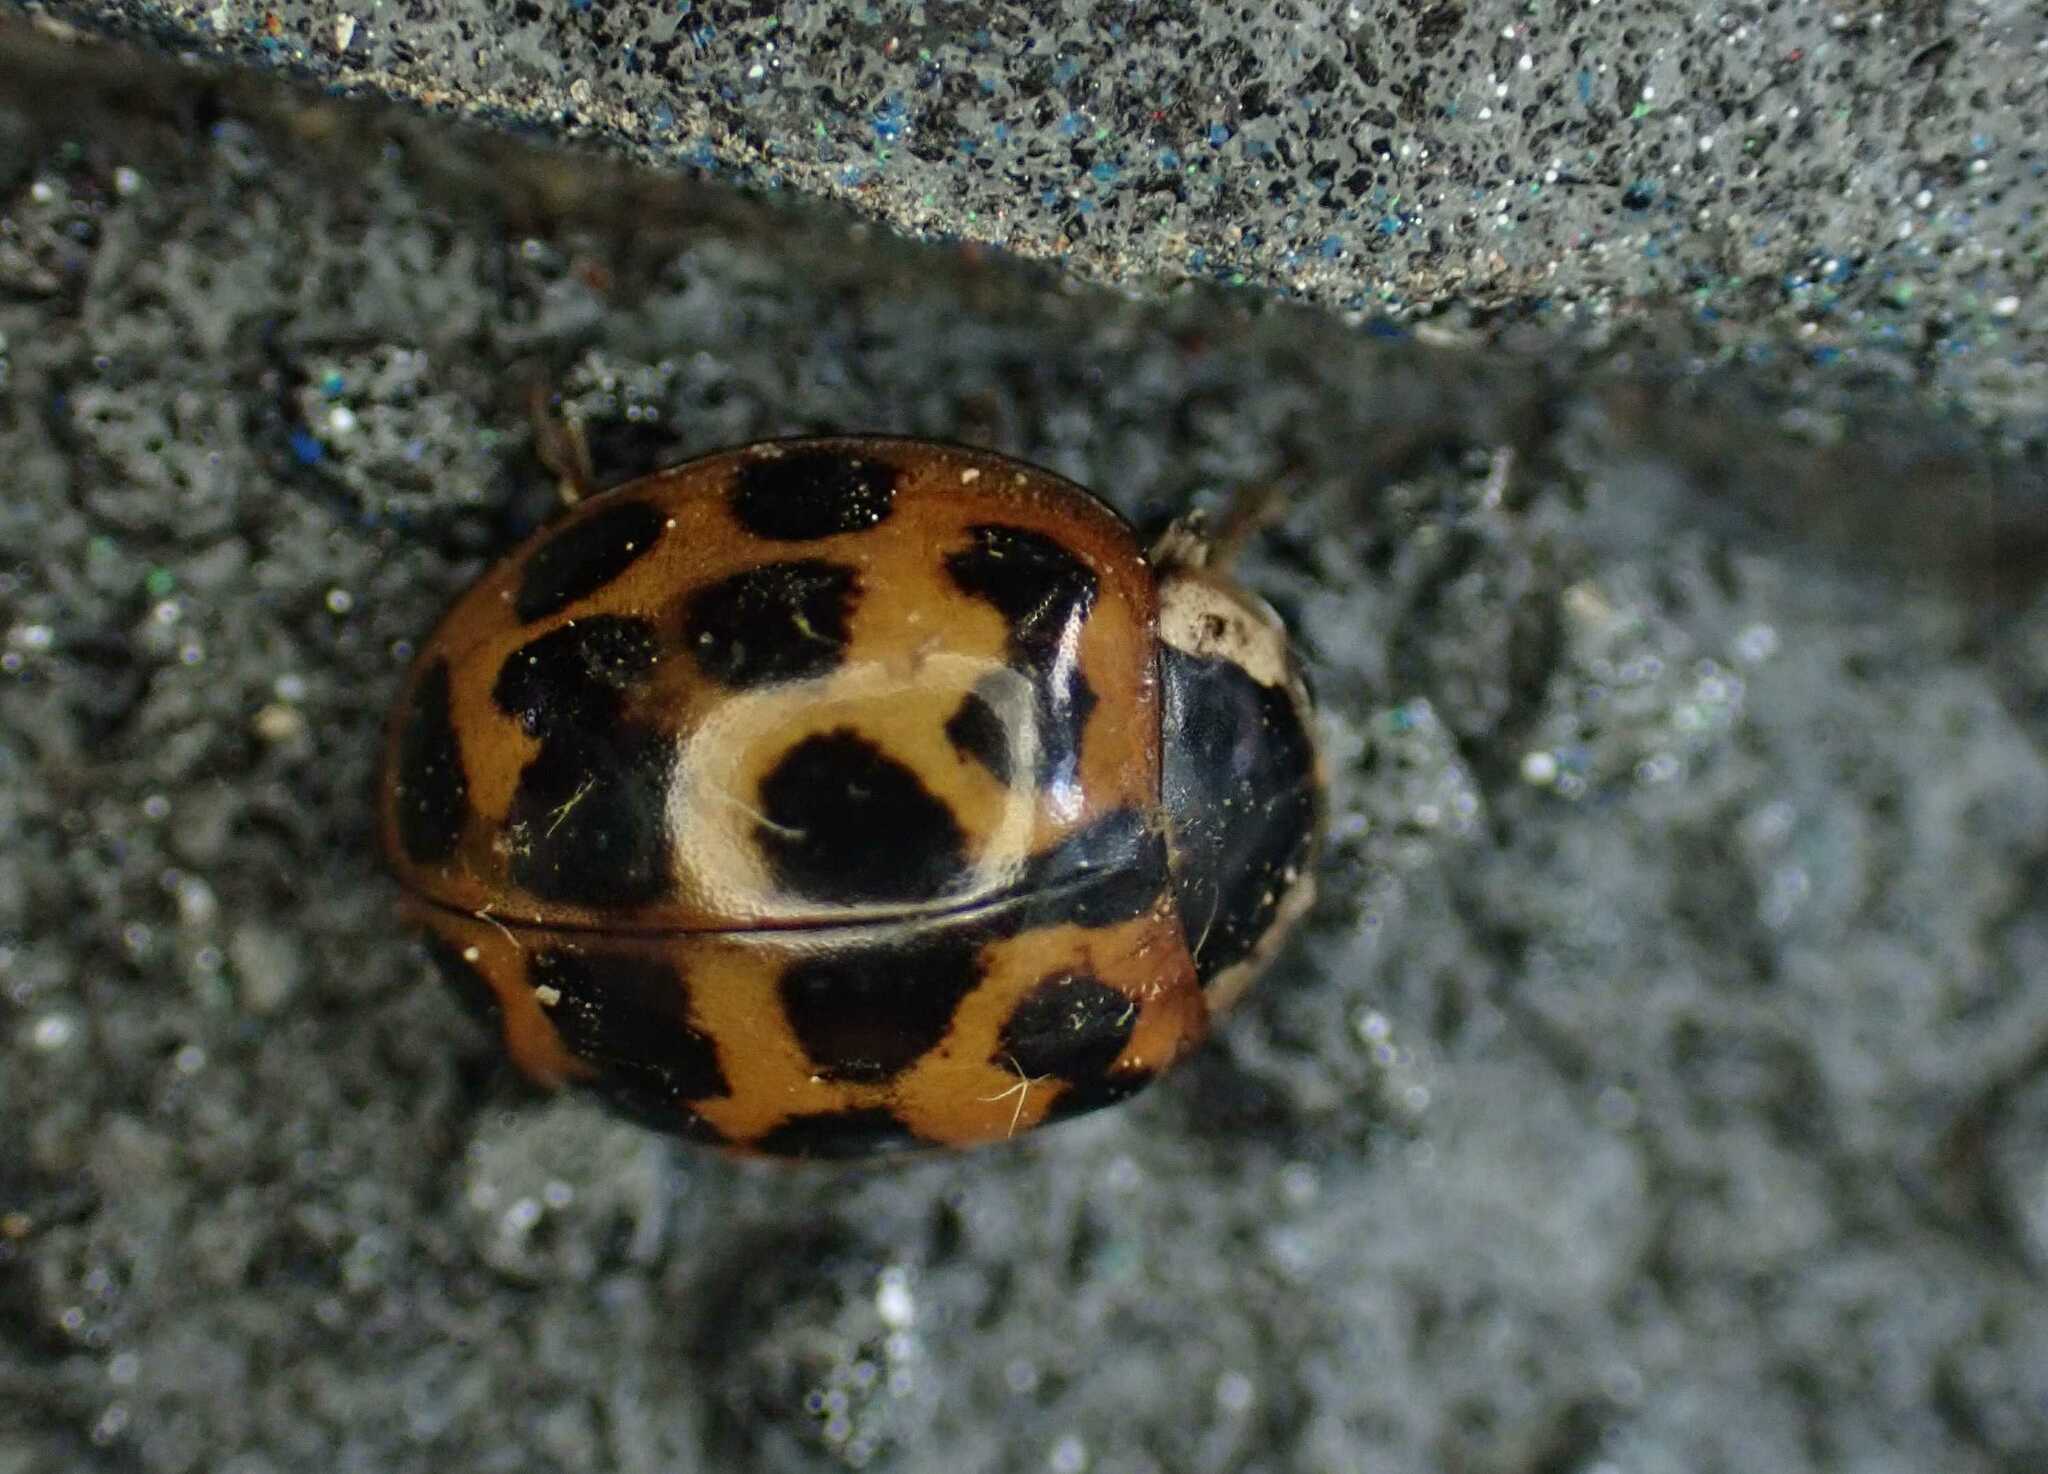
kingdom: Animalia
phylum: Arthropoda
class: Insecta
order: Coleoptera
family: Coccinellidae
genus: Harmonia
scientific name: Harmonia axyridis
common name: Harlequin ladybird
